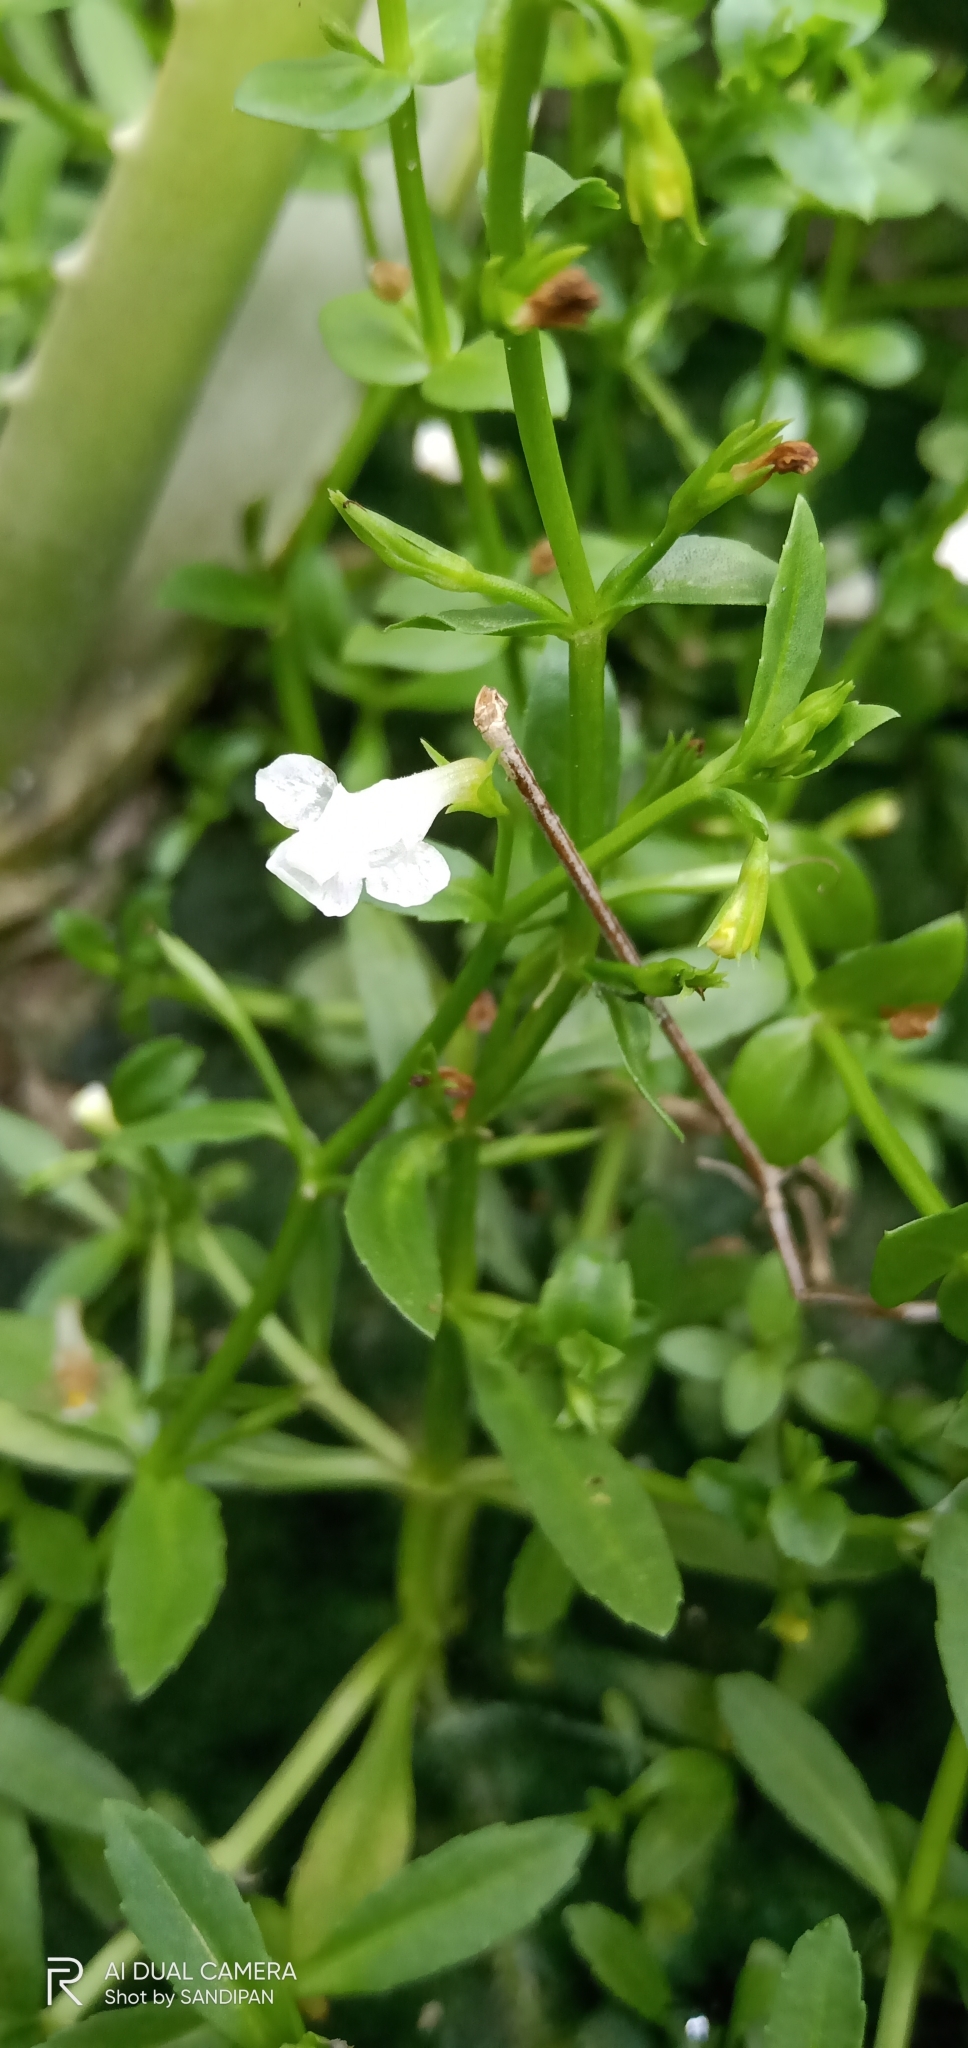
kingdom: Plantae
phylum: Tracheophyta
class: Magnoliopsida
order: Lamiales
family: Linderniaceae
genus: Bonnaya
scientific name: Bonnaya antipoda
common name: Sparrow false pimpernel
